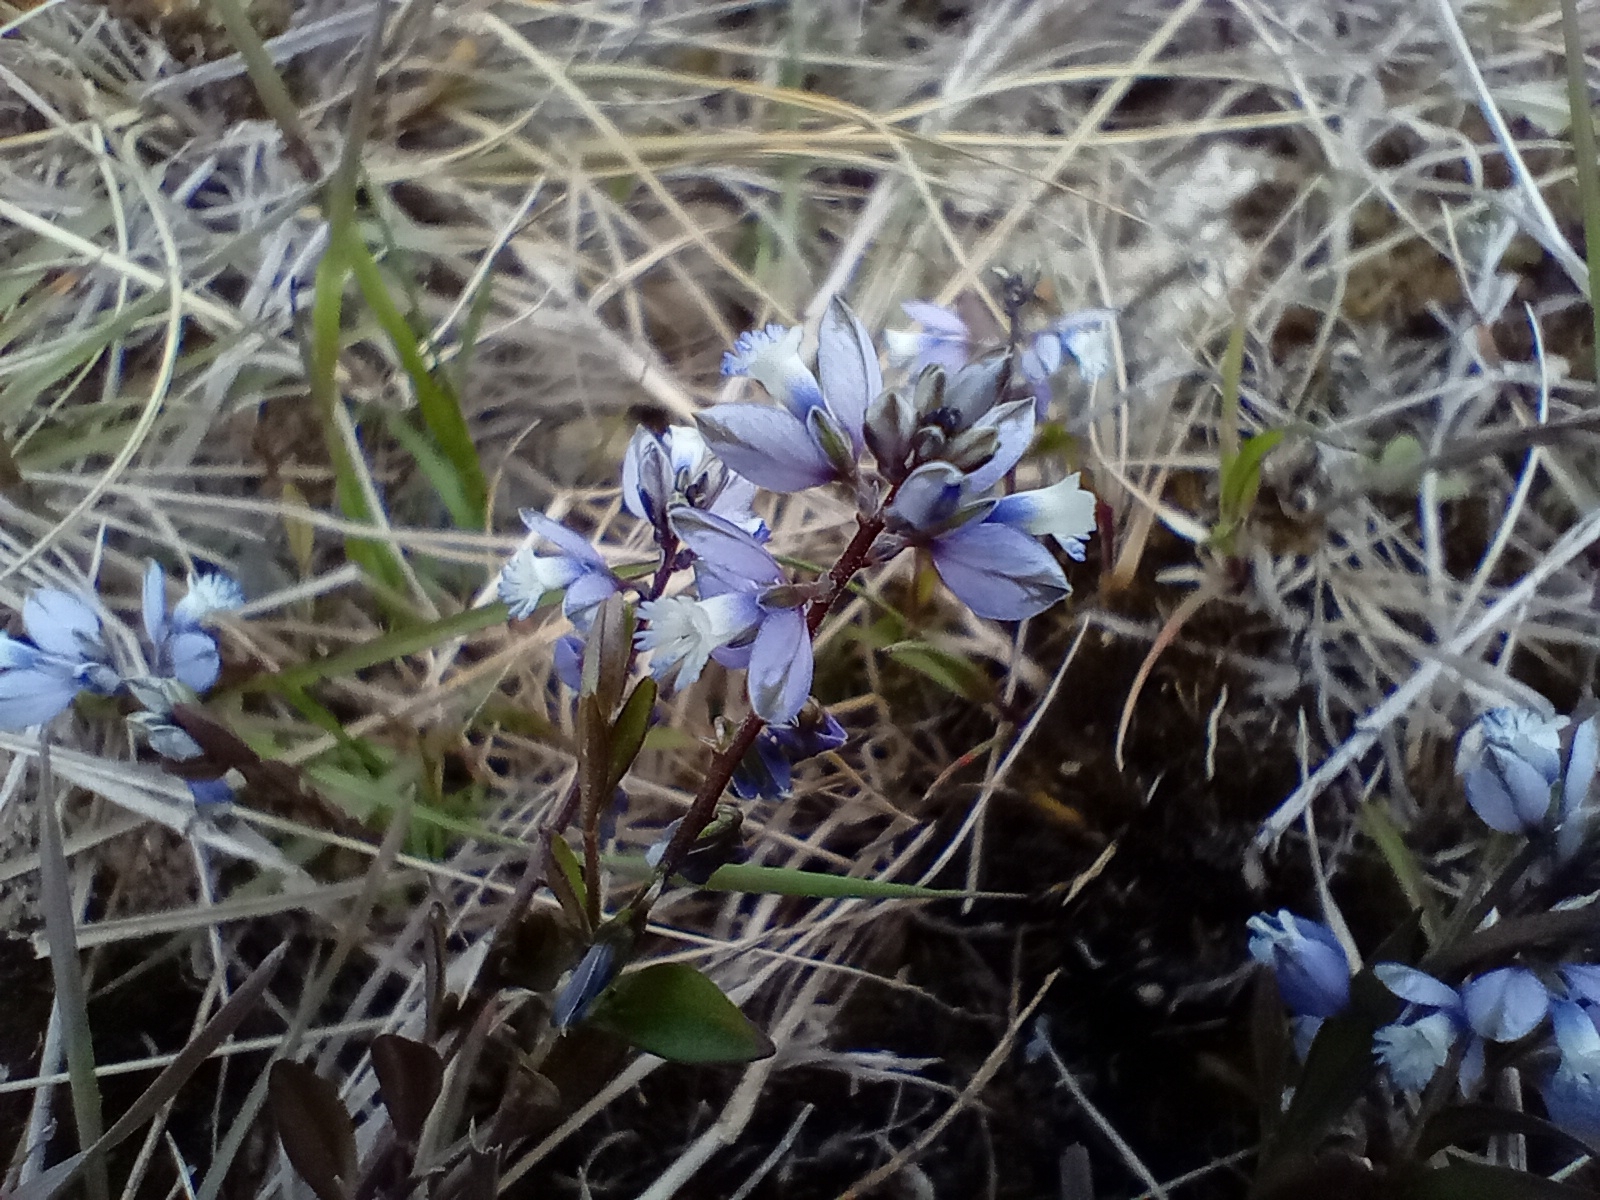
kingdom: Plantae
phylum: Tracheophyta
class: Magnoliopsida
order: Fabales
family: Polygalaceae
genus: Polygala
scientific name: Polygala serpyllifolia
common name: Heath milkwort
